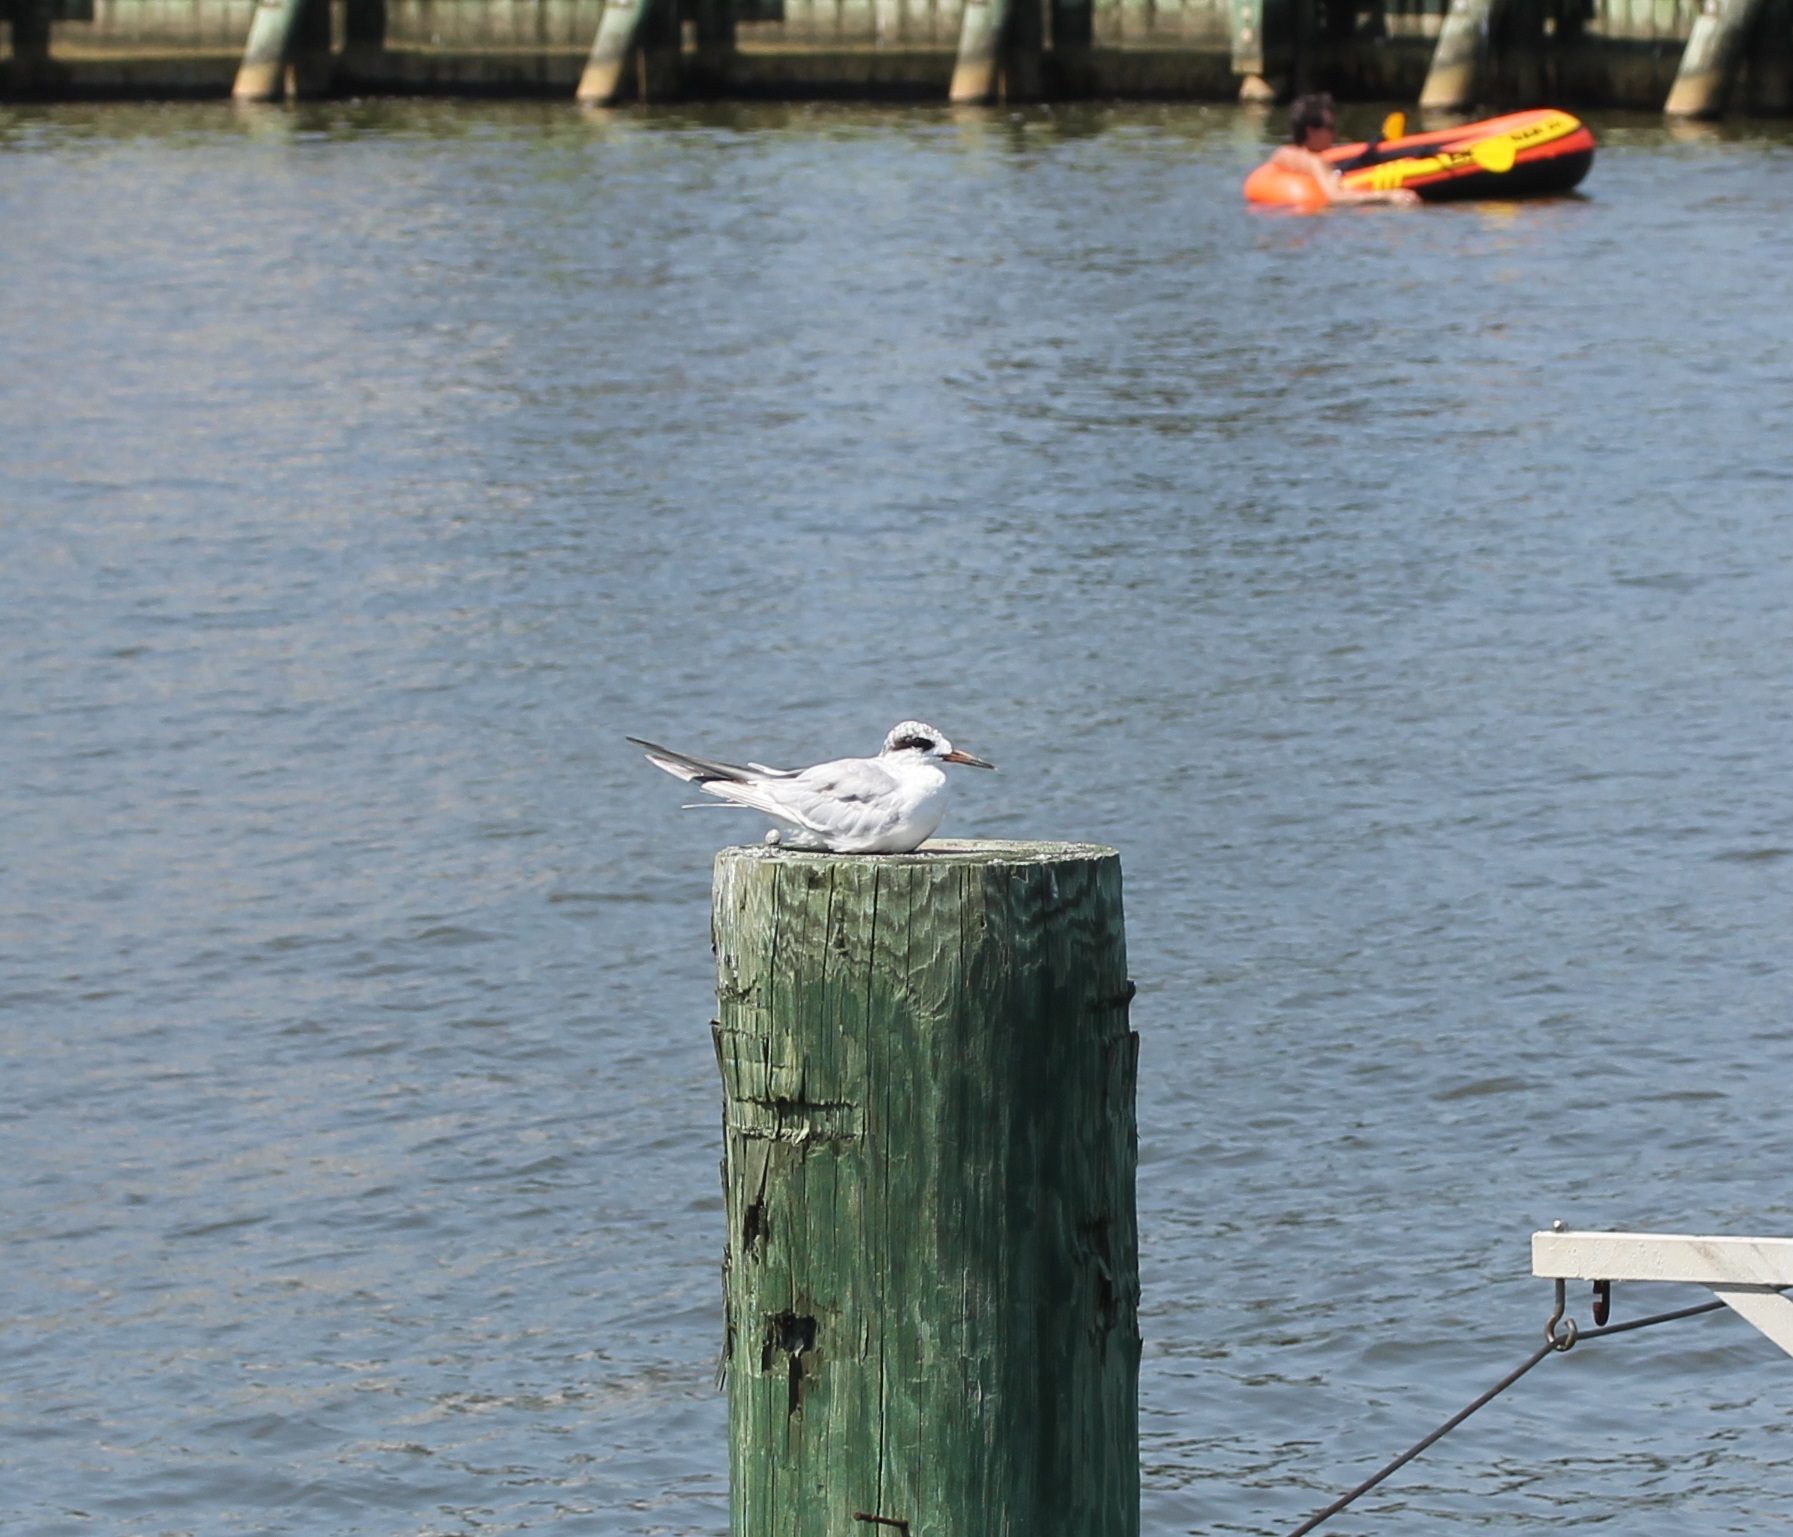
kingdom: Animalia
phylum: Chordata
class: Aves
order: Charadriiformes
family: Laridae
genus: Sterna
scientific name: Sterna forsteri
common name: Forster's tern
